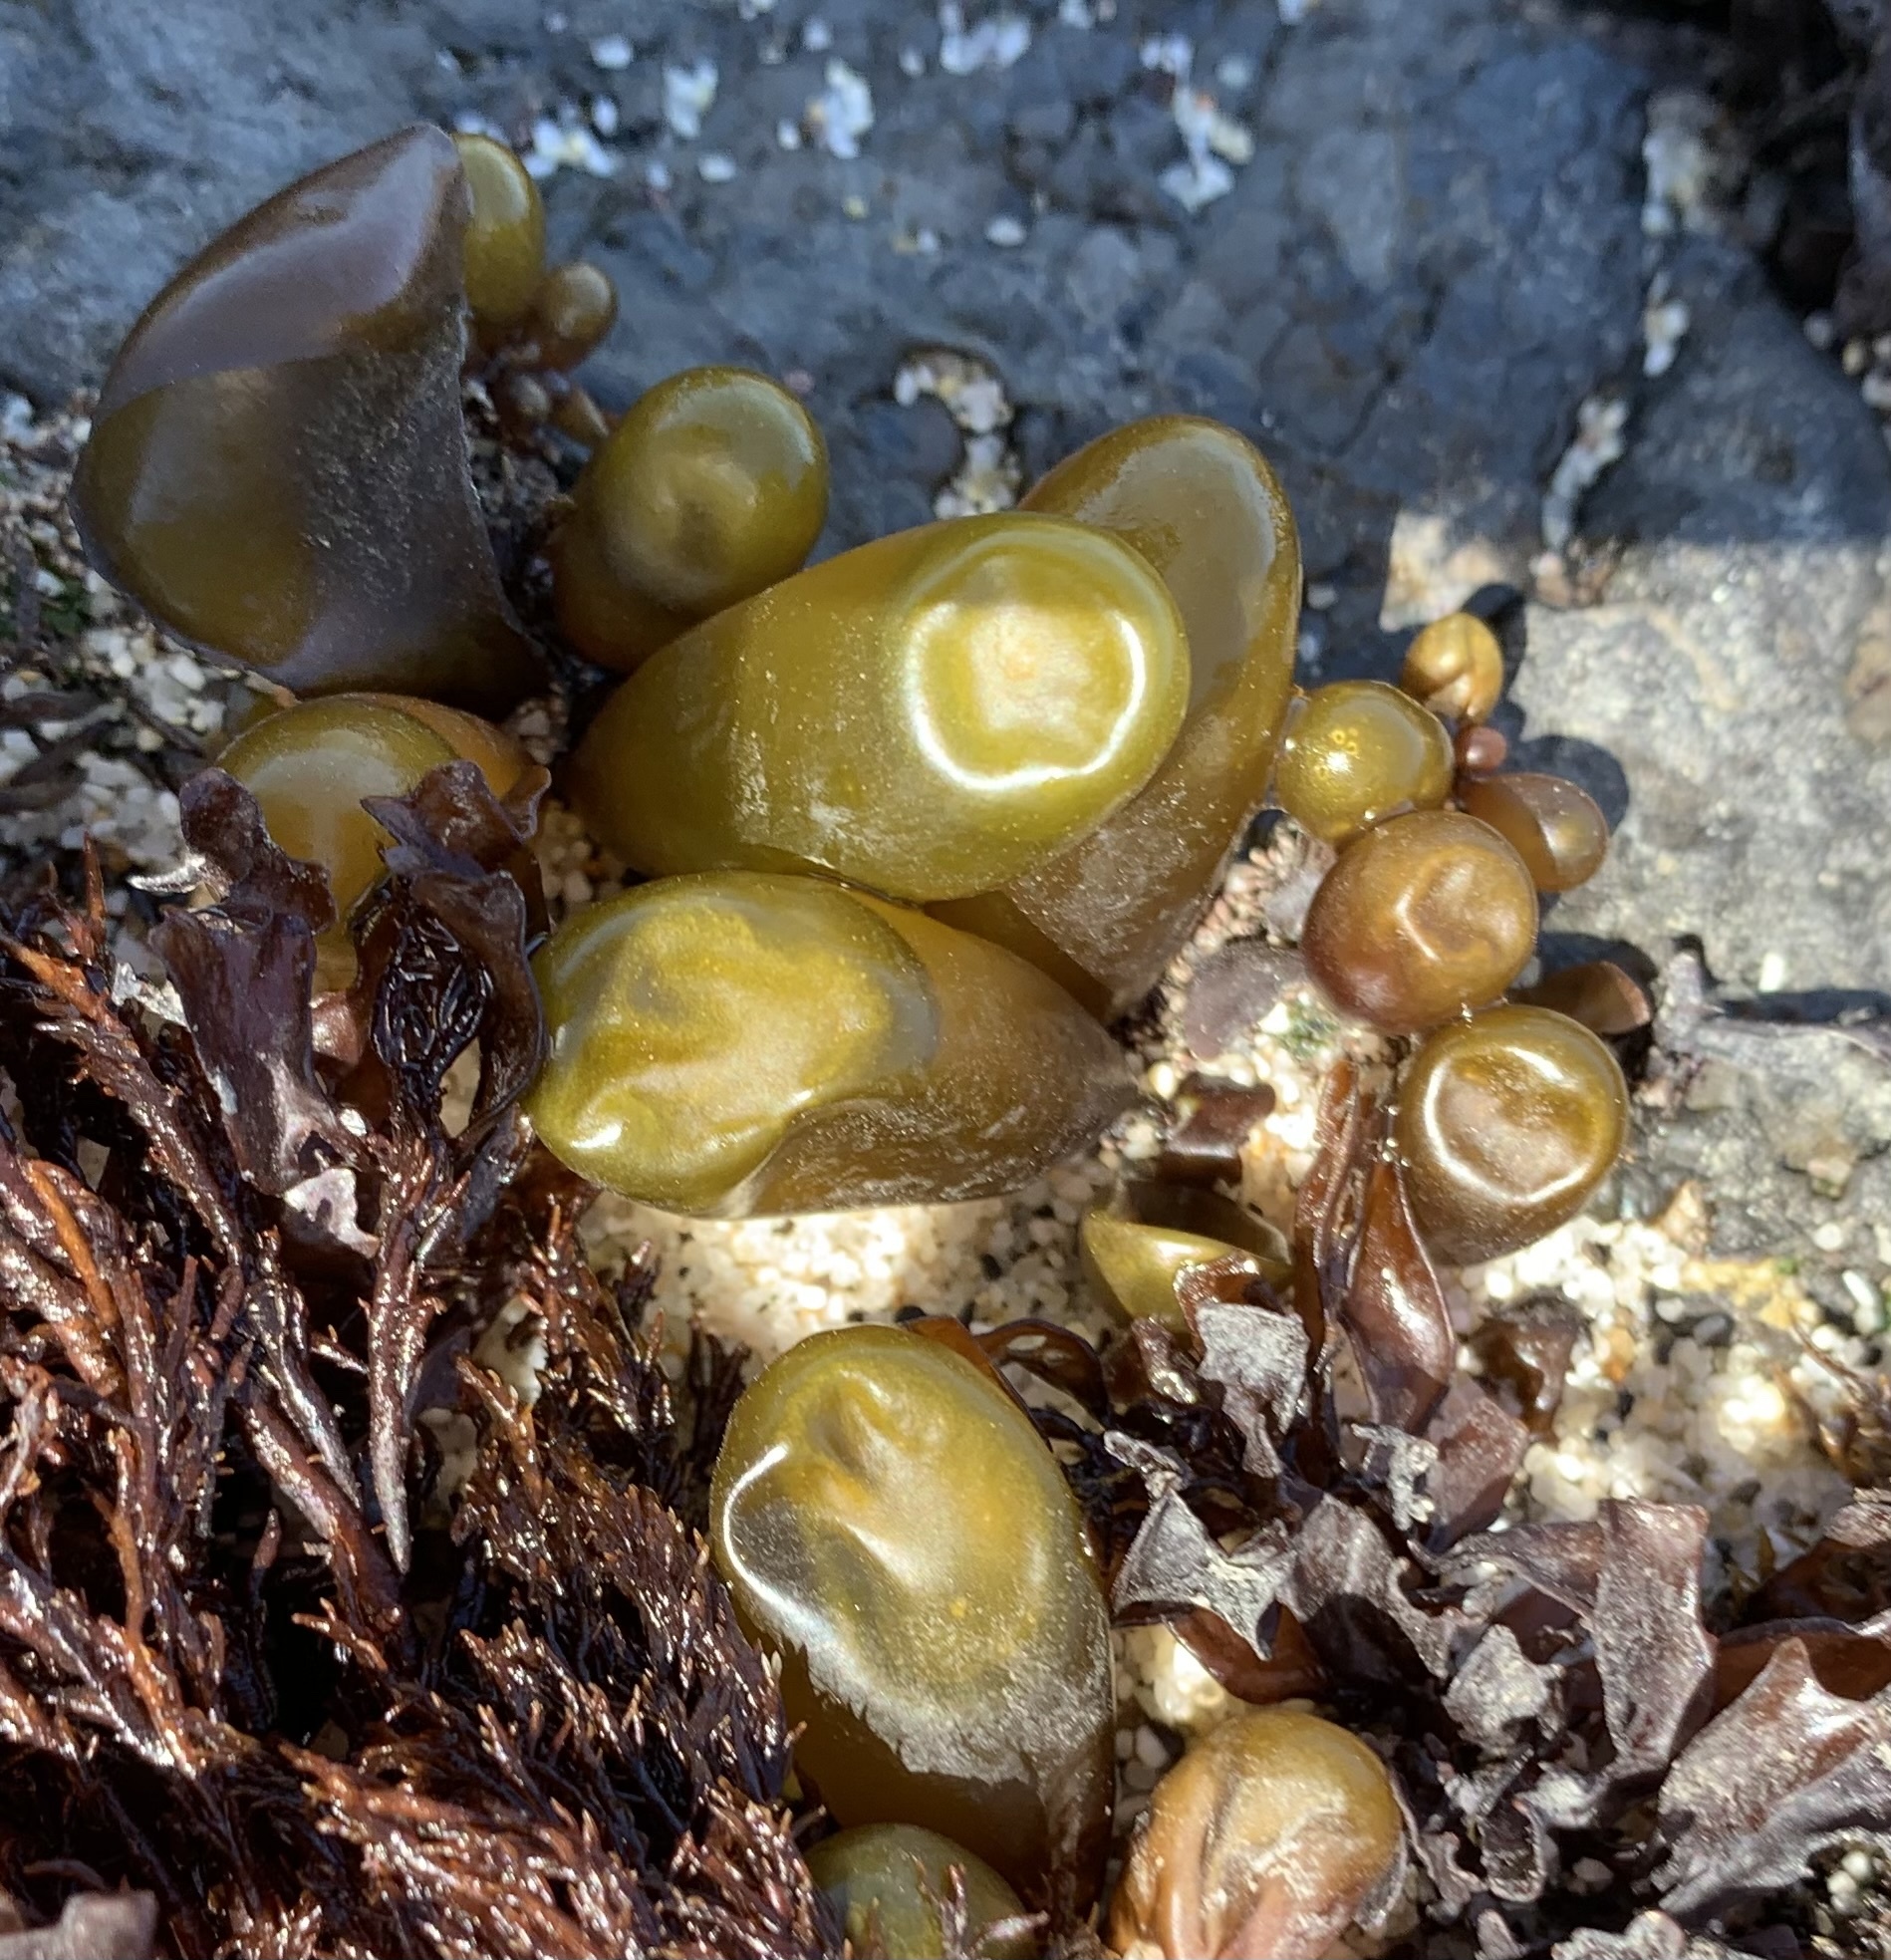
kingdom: Plantae
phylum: Rhodophyta
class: Florideophyceae
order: Palmariales
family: Palmariaceae
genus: Halosaccion
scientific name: Halosaccion glandiforme
